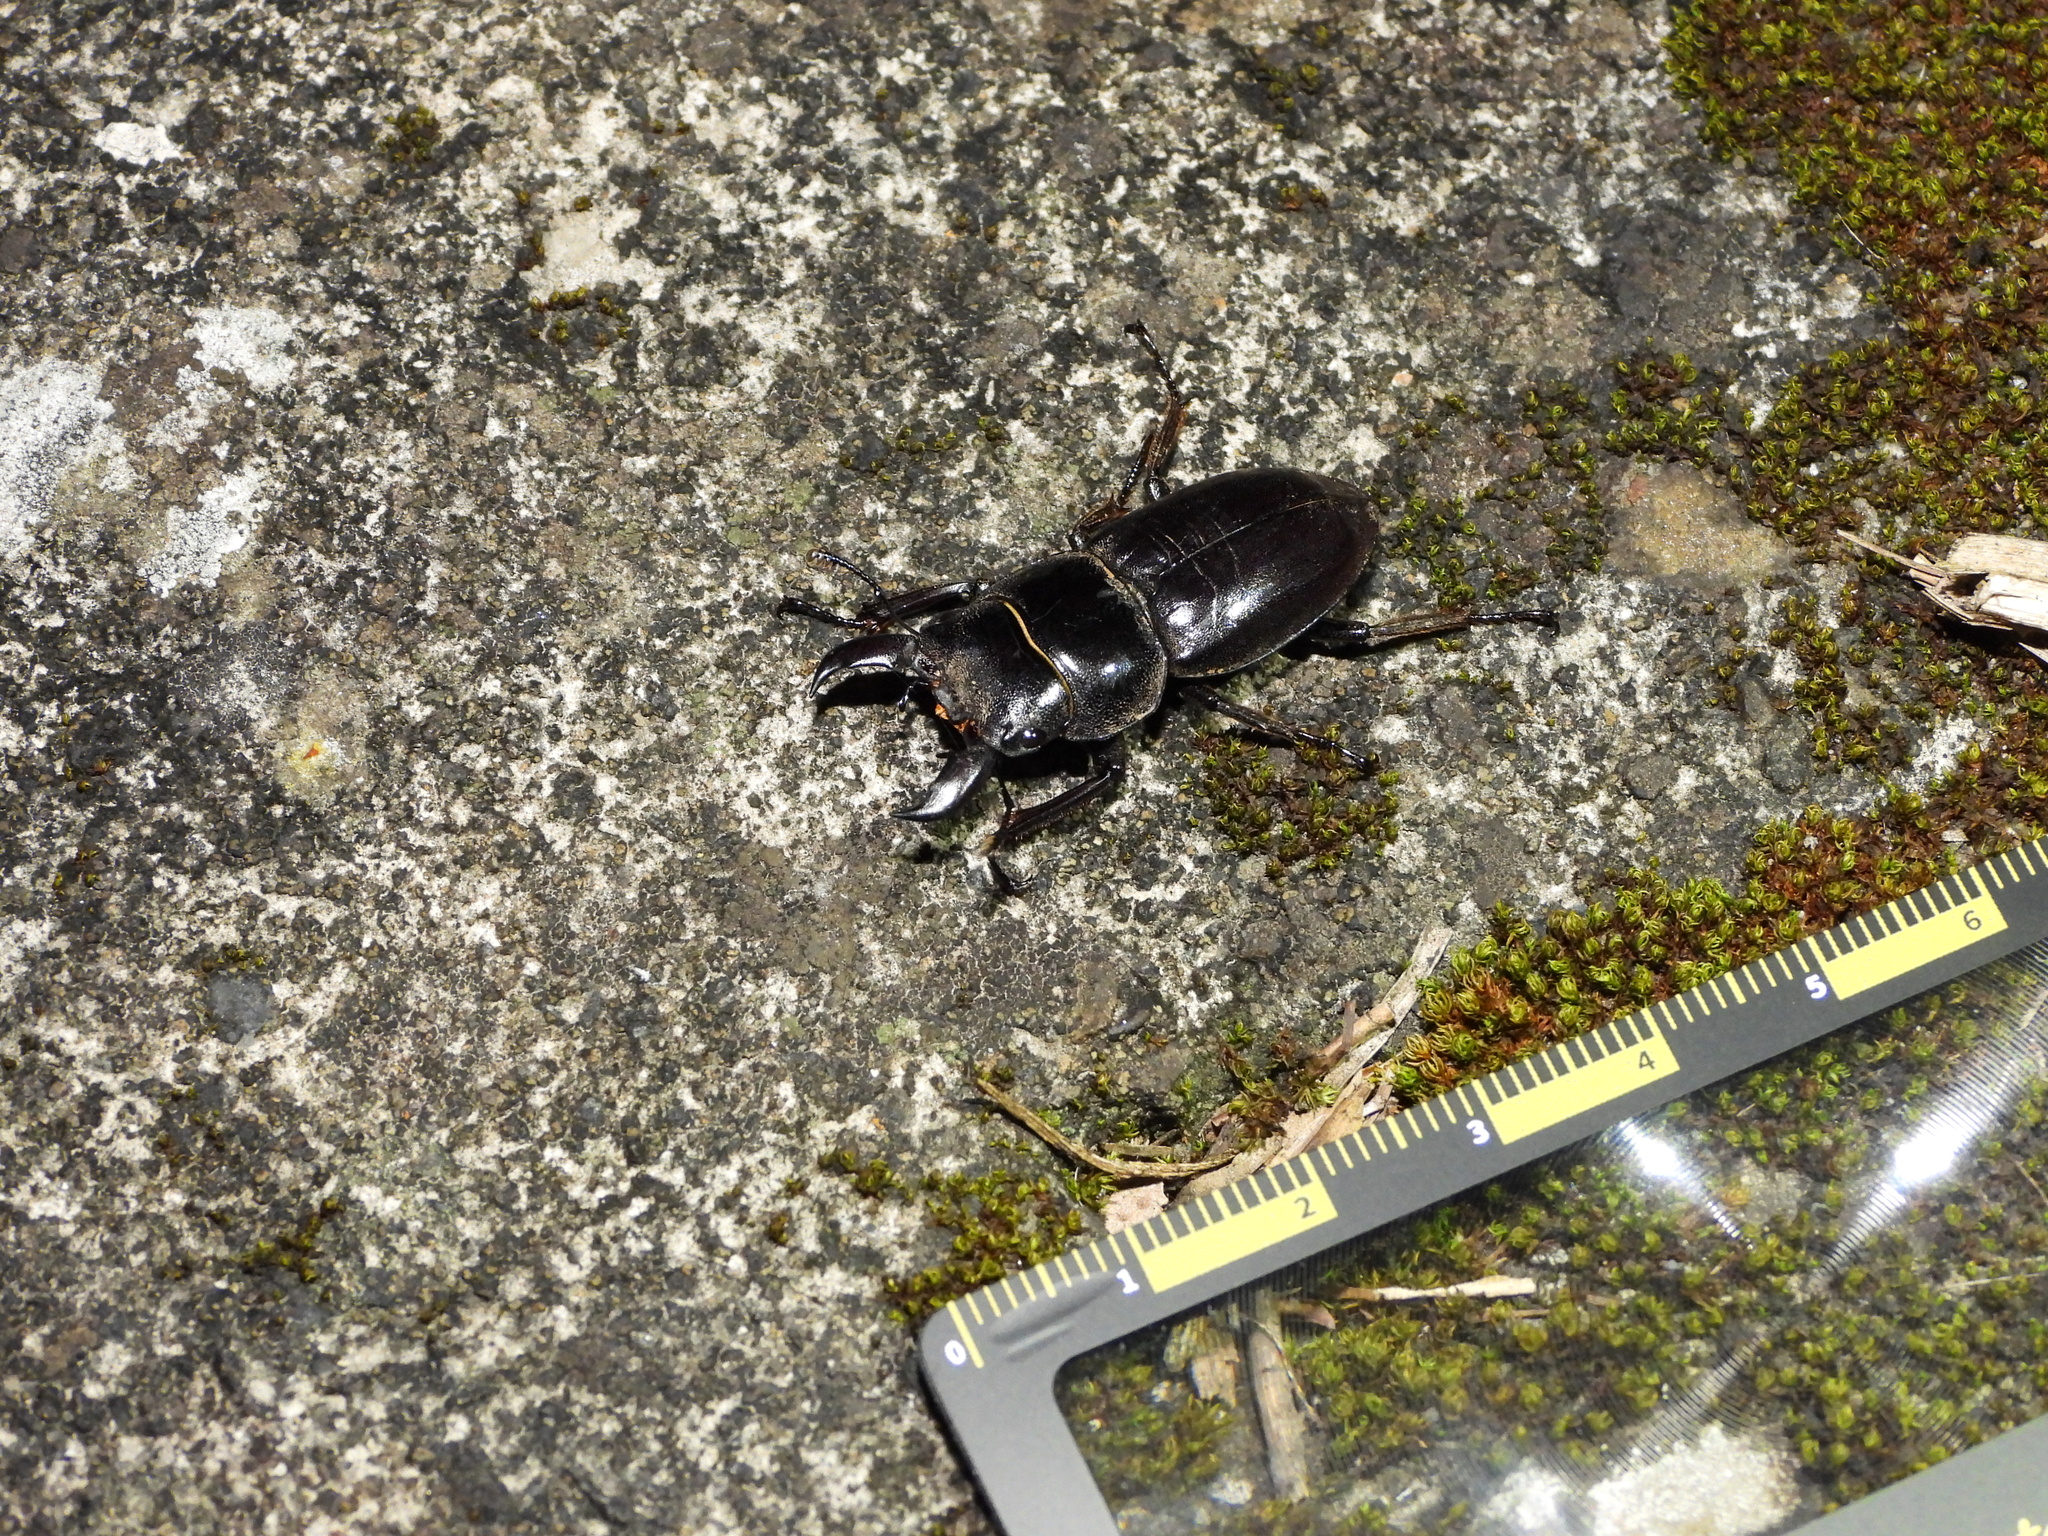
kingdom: Animalia
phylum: Arthropoda
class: Insecta
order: Coleoptera
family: Lucanidae
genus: Serrognathus
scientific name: Serrognathus titanus
